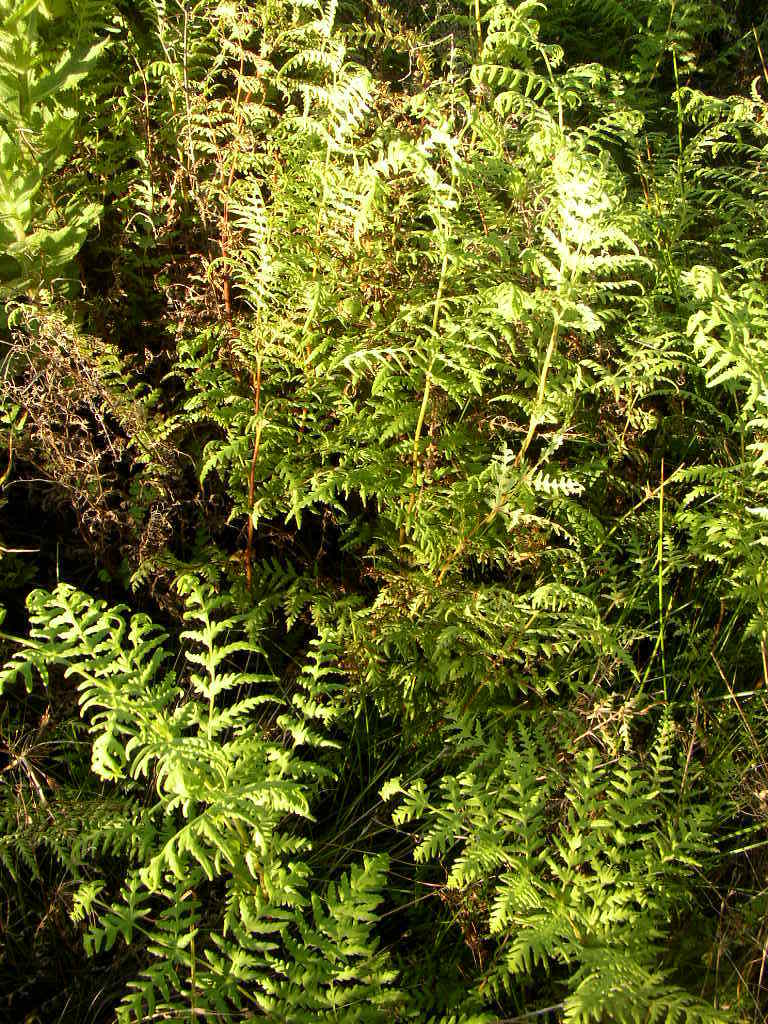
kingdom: Plantae
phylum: Tracheophyta
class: Polypodiopsida
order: Polypodiales
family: Dennstaedtiaceae
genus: Histiopteris
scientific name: Histiopteris incisa
